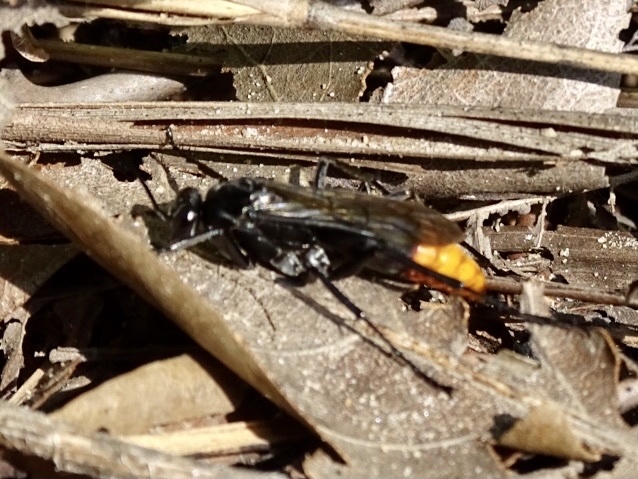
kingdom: Animalia
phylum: Arthropoda
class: Insecta
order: Hymenoptera
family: Pompilidae
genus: Tachypompilus
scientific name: Tachypompilus analis
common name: Spider wasp
